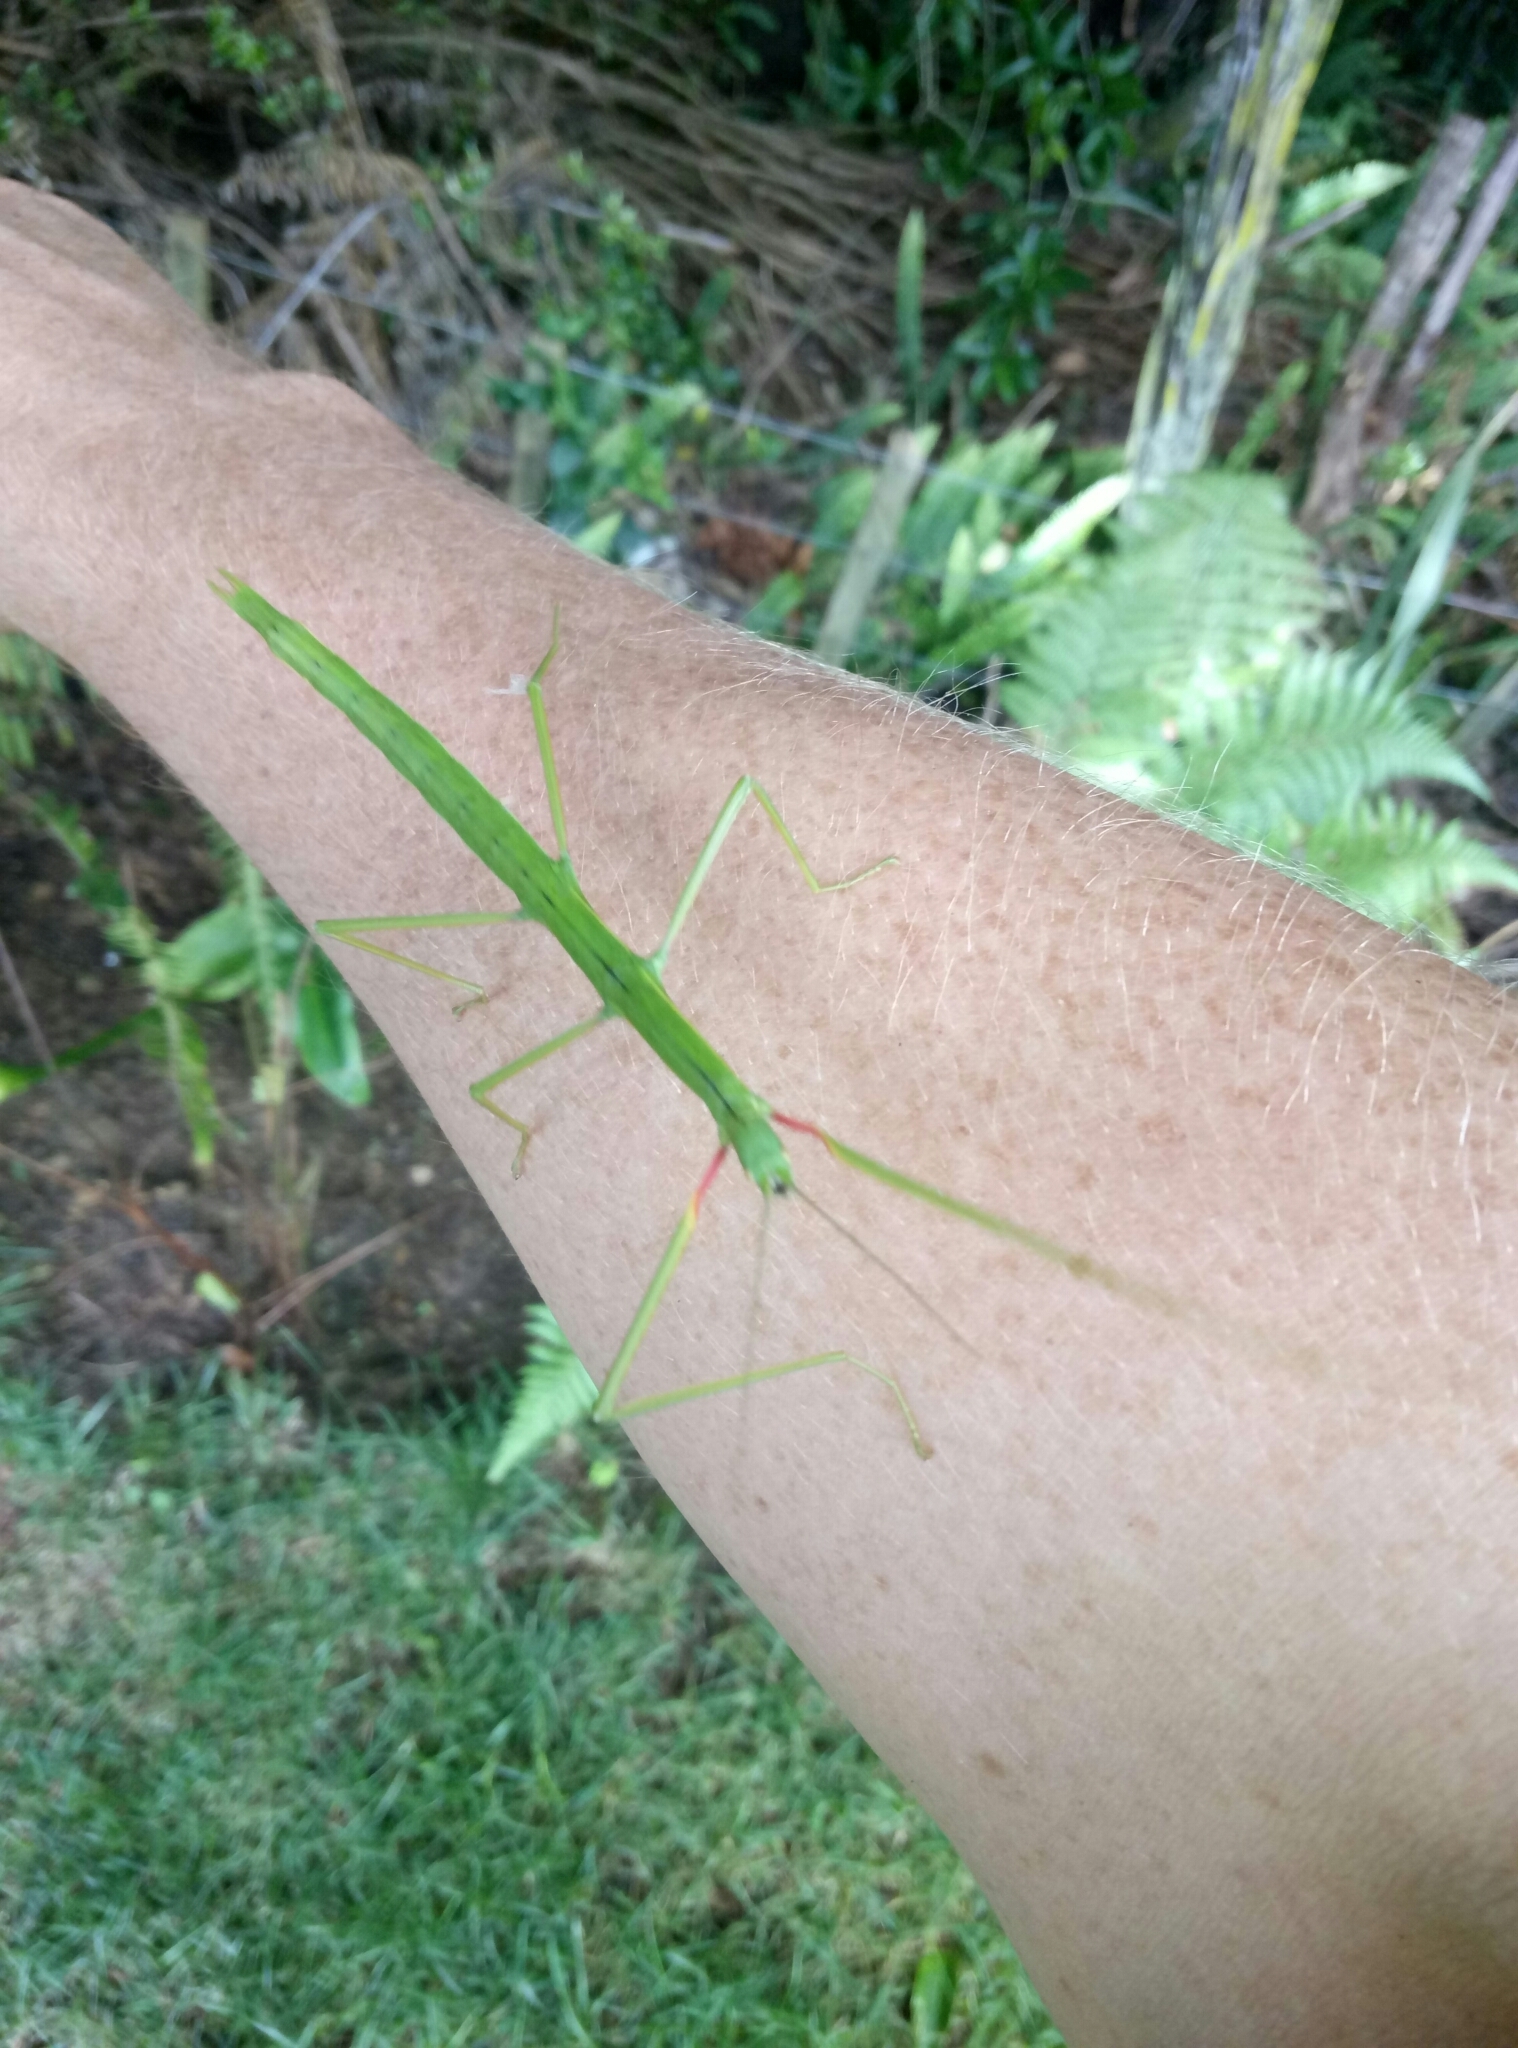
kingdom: Animalia
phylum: Arthropoda
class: Insecta
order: Phasmida
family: Phasmatidae
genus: Clitarchus
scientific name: Clitarchus hookeri
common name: Smooth stick insect
